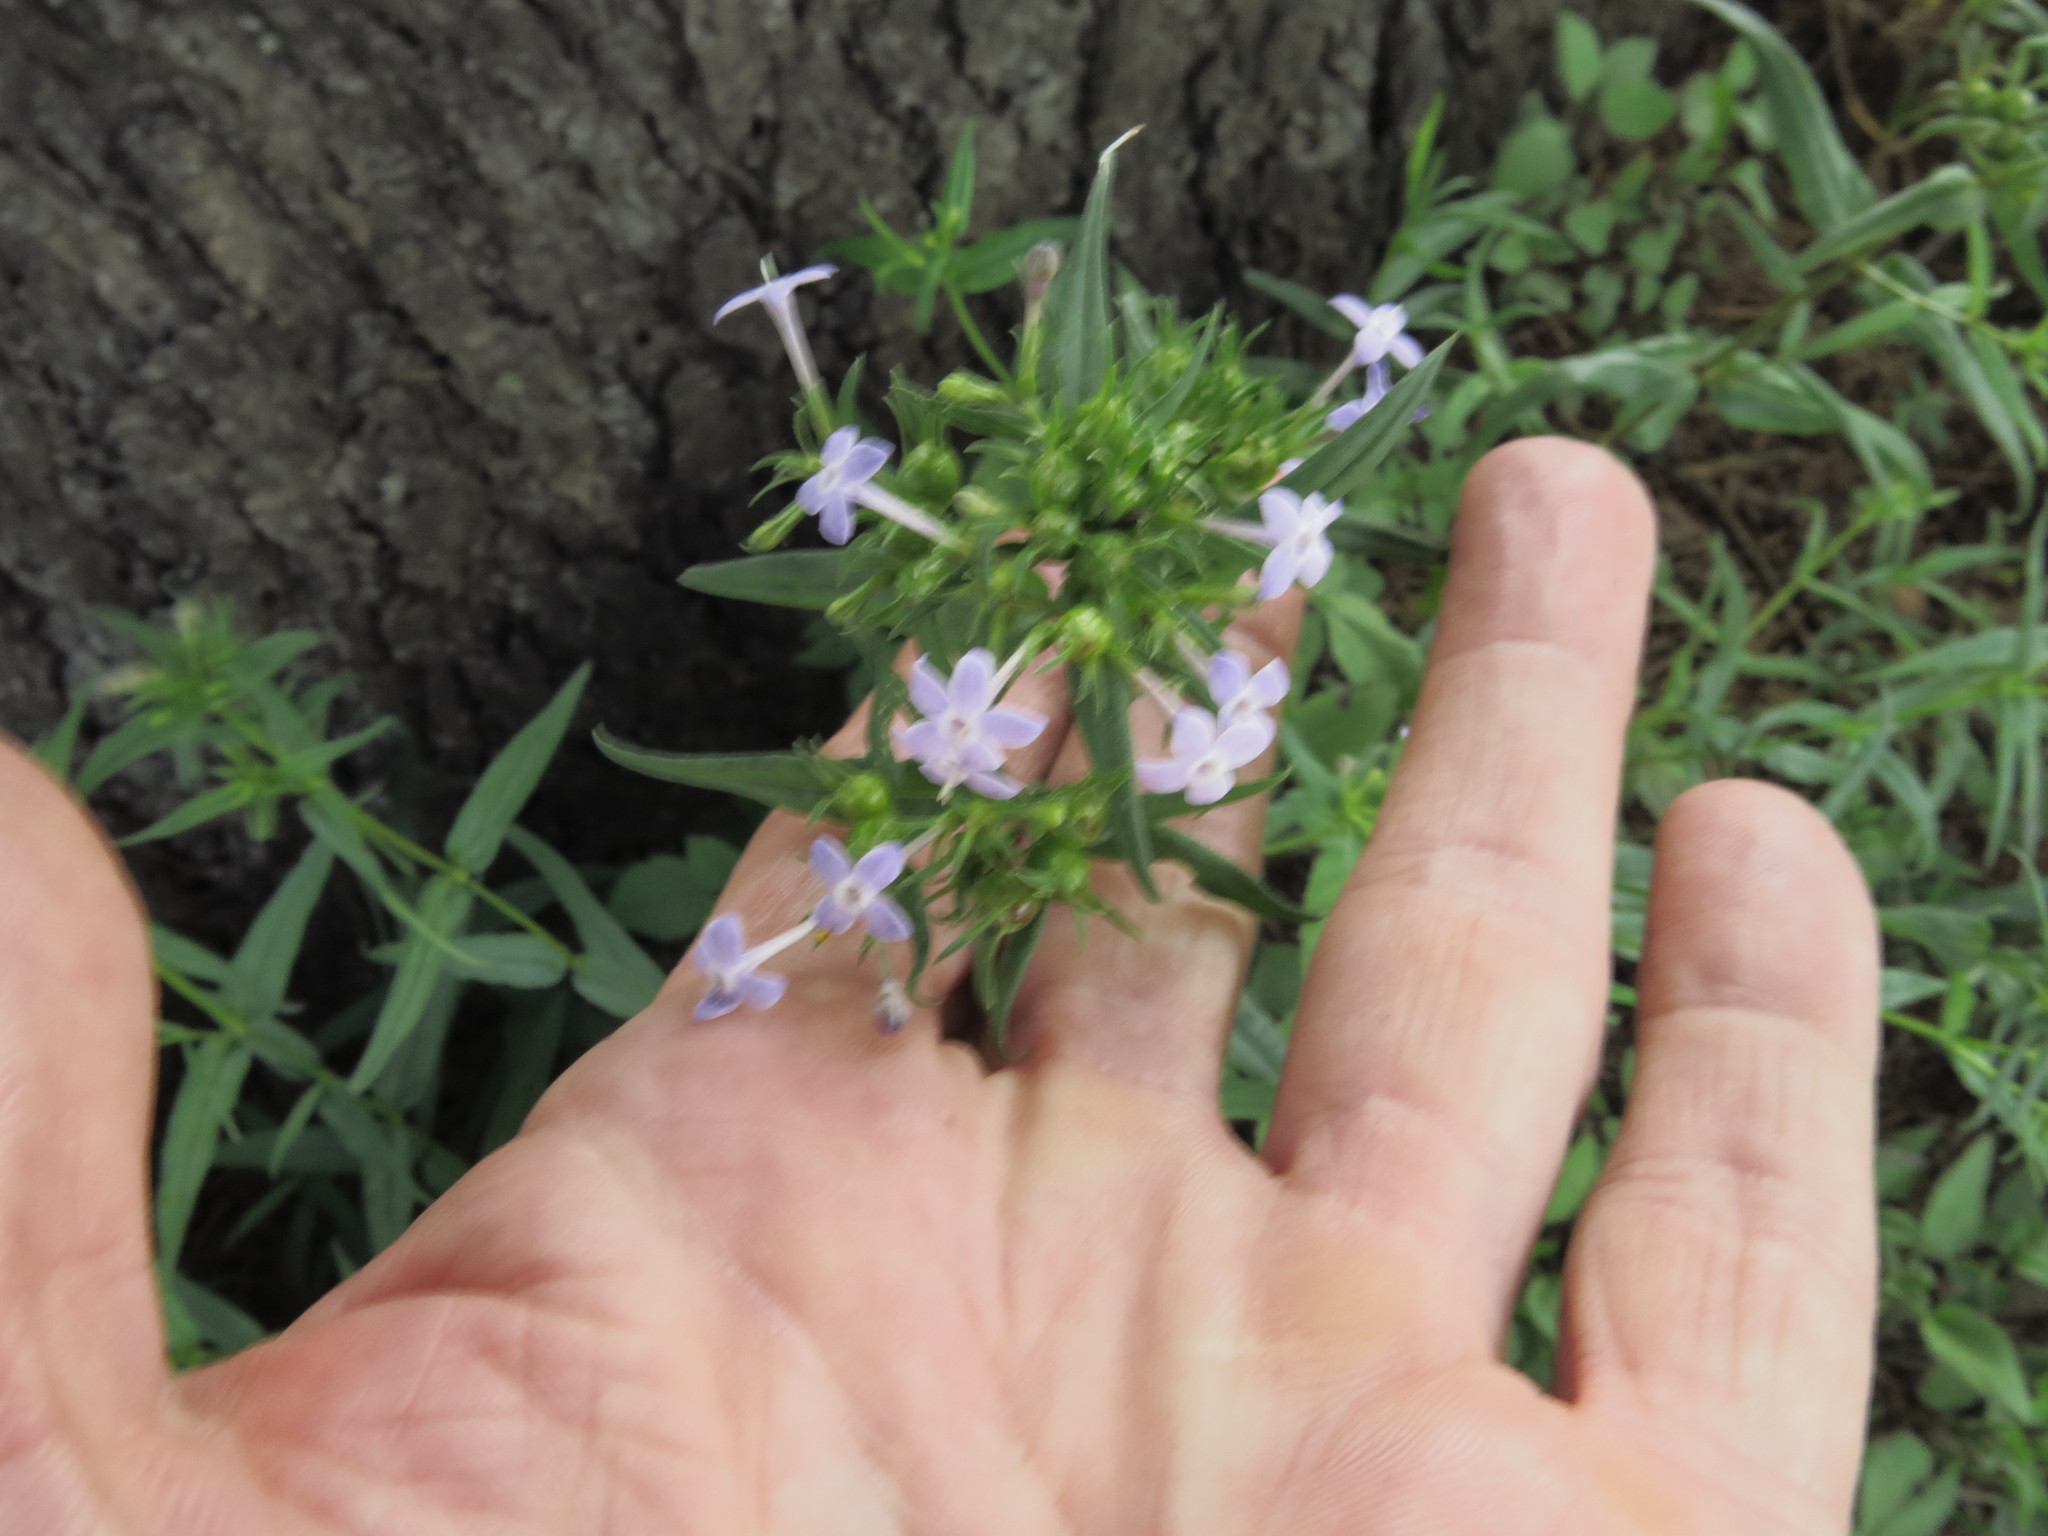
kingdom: Plantae
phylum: Tracheophyta
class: Magnoliopsida
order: Gentianales
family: Rubiaceae
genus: Conostomium
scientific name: Conostomium natalense
